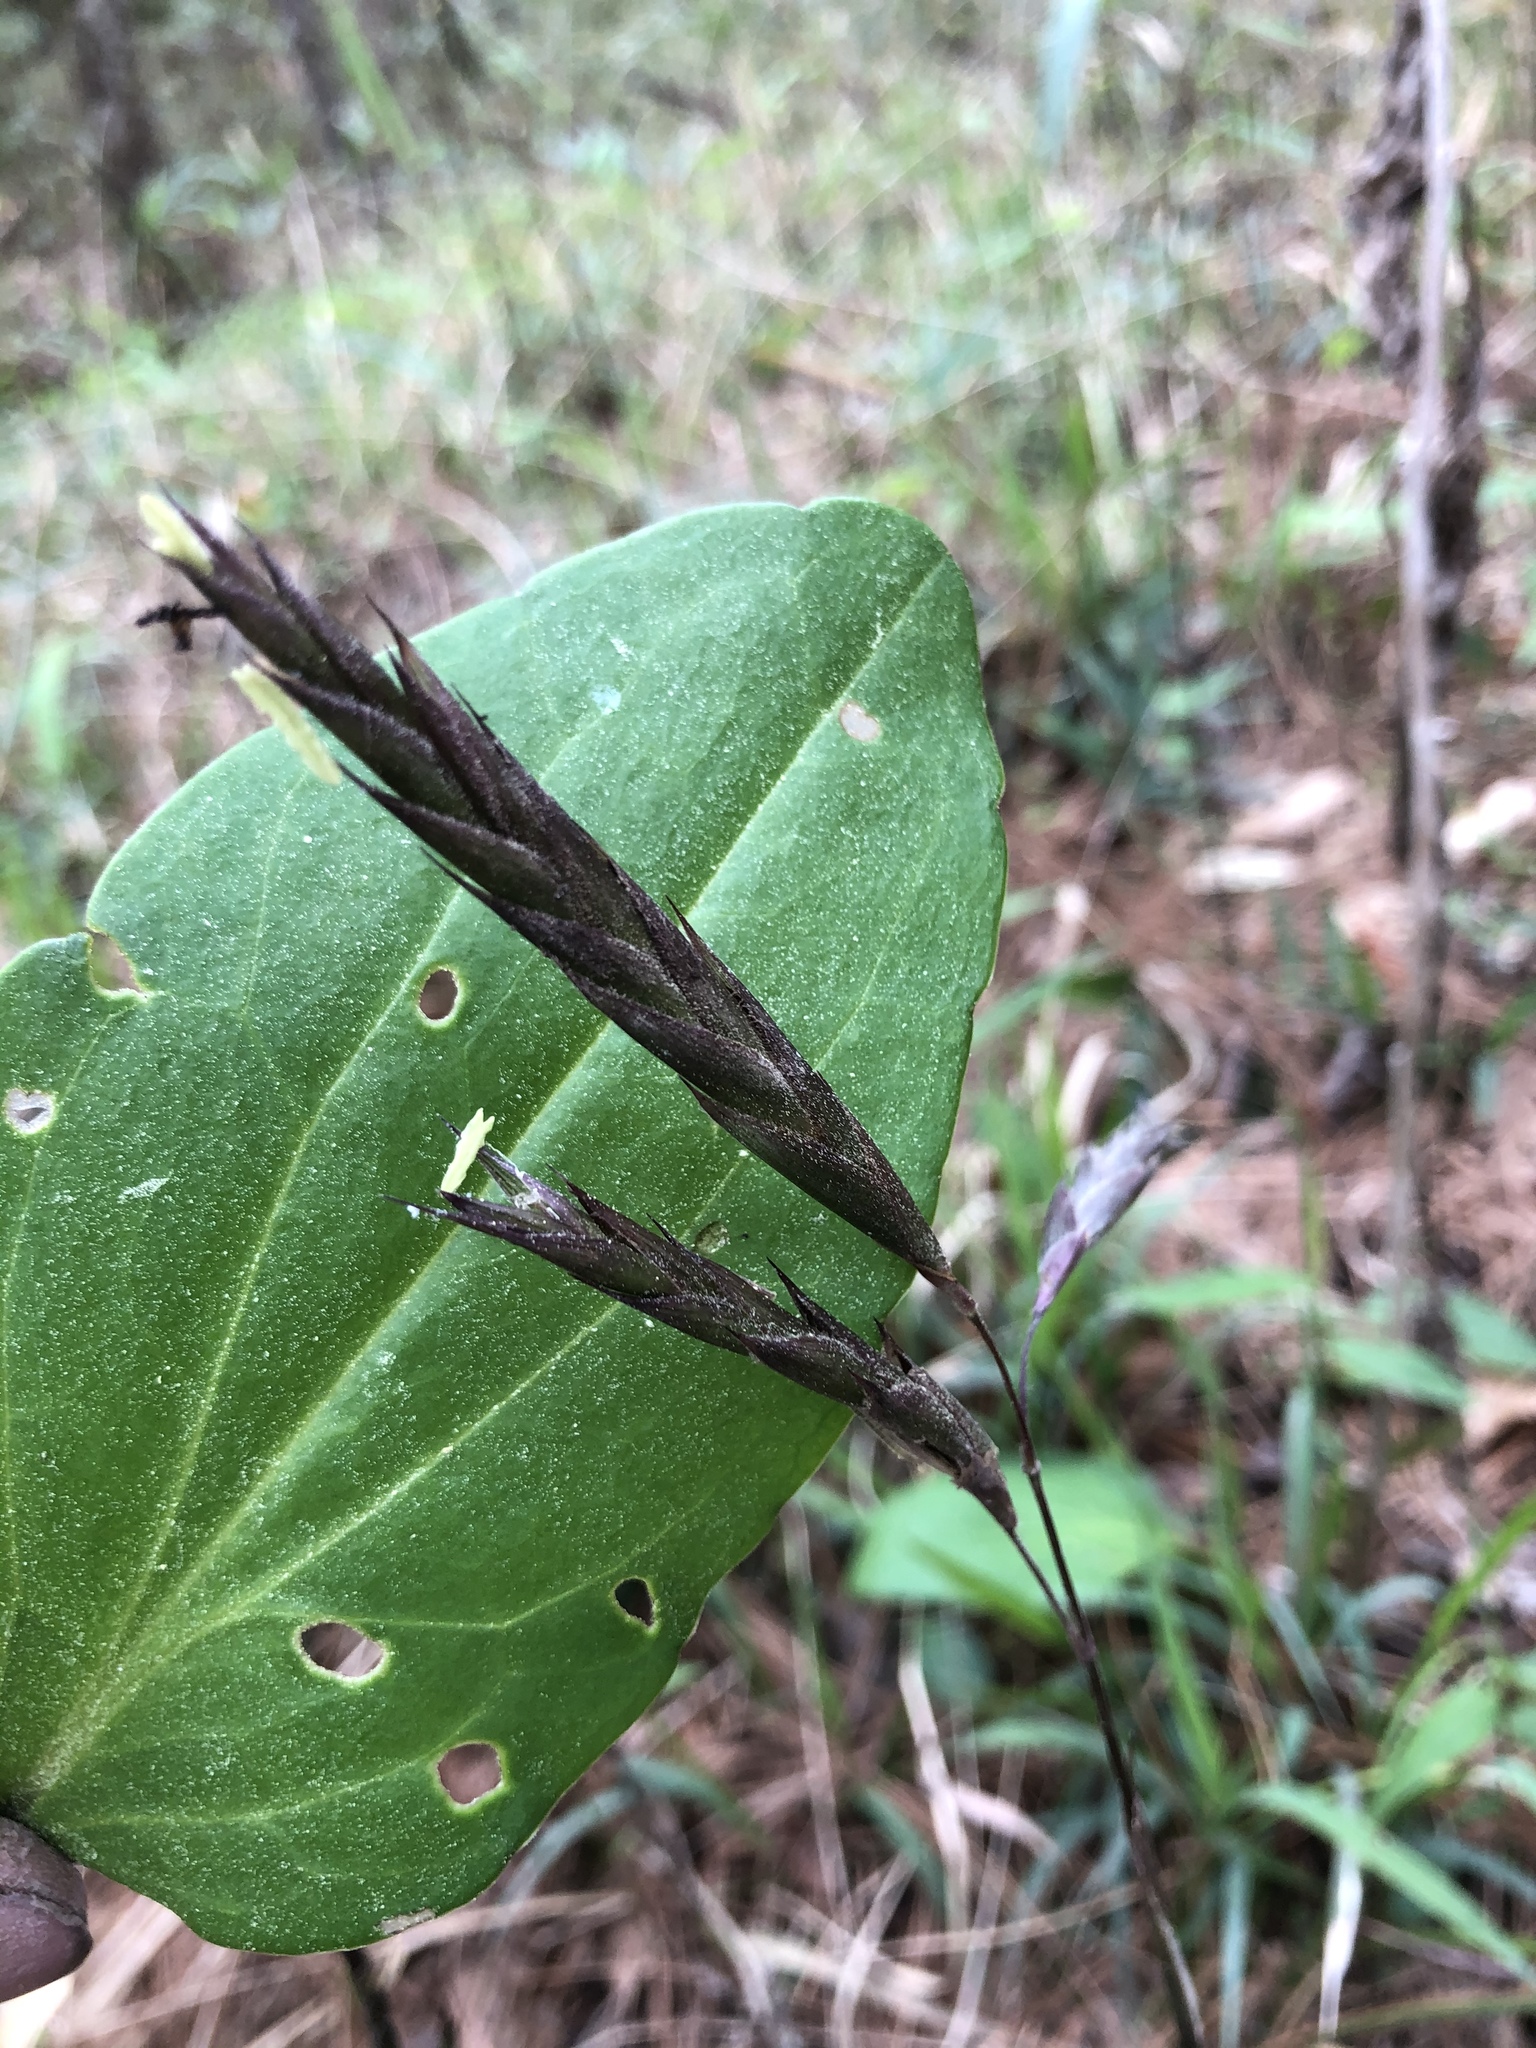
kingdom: Plantae
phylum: Tracheophyta
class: Liliopsida
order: Poales
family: Poaceae
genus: Arundinaria
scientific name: Arundinaria tecta
